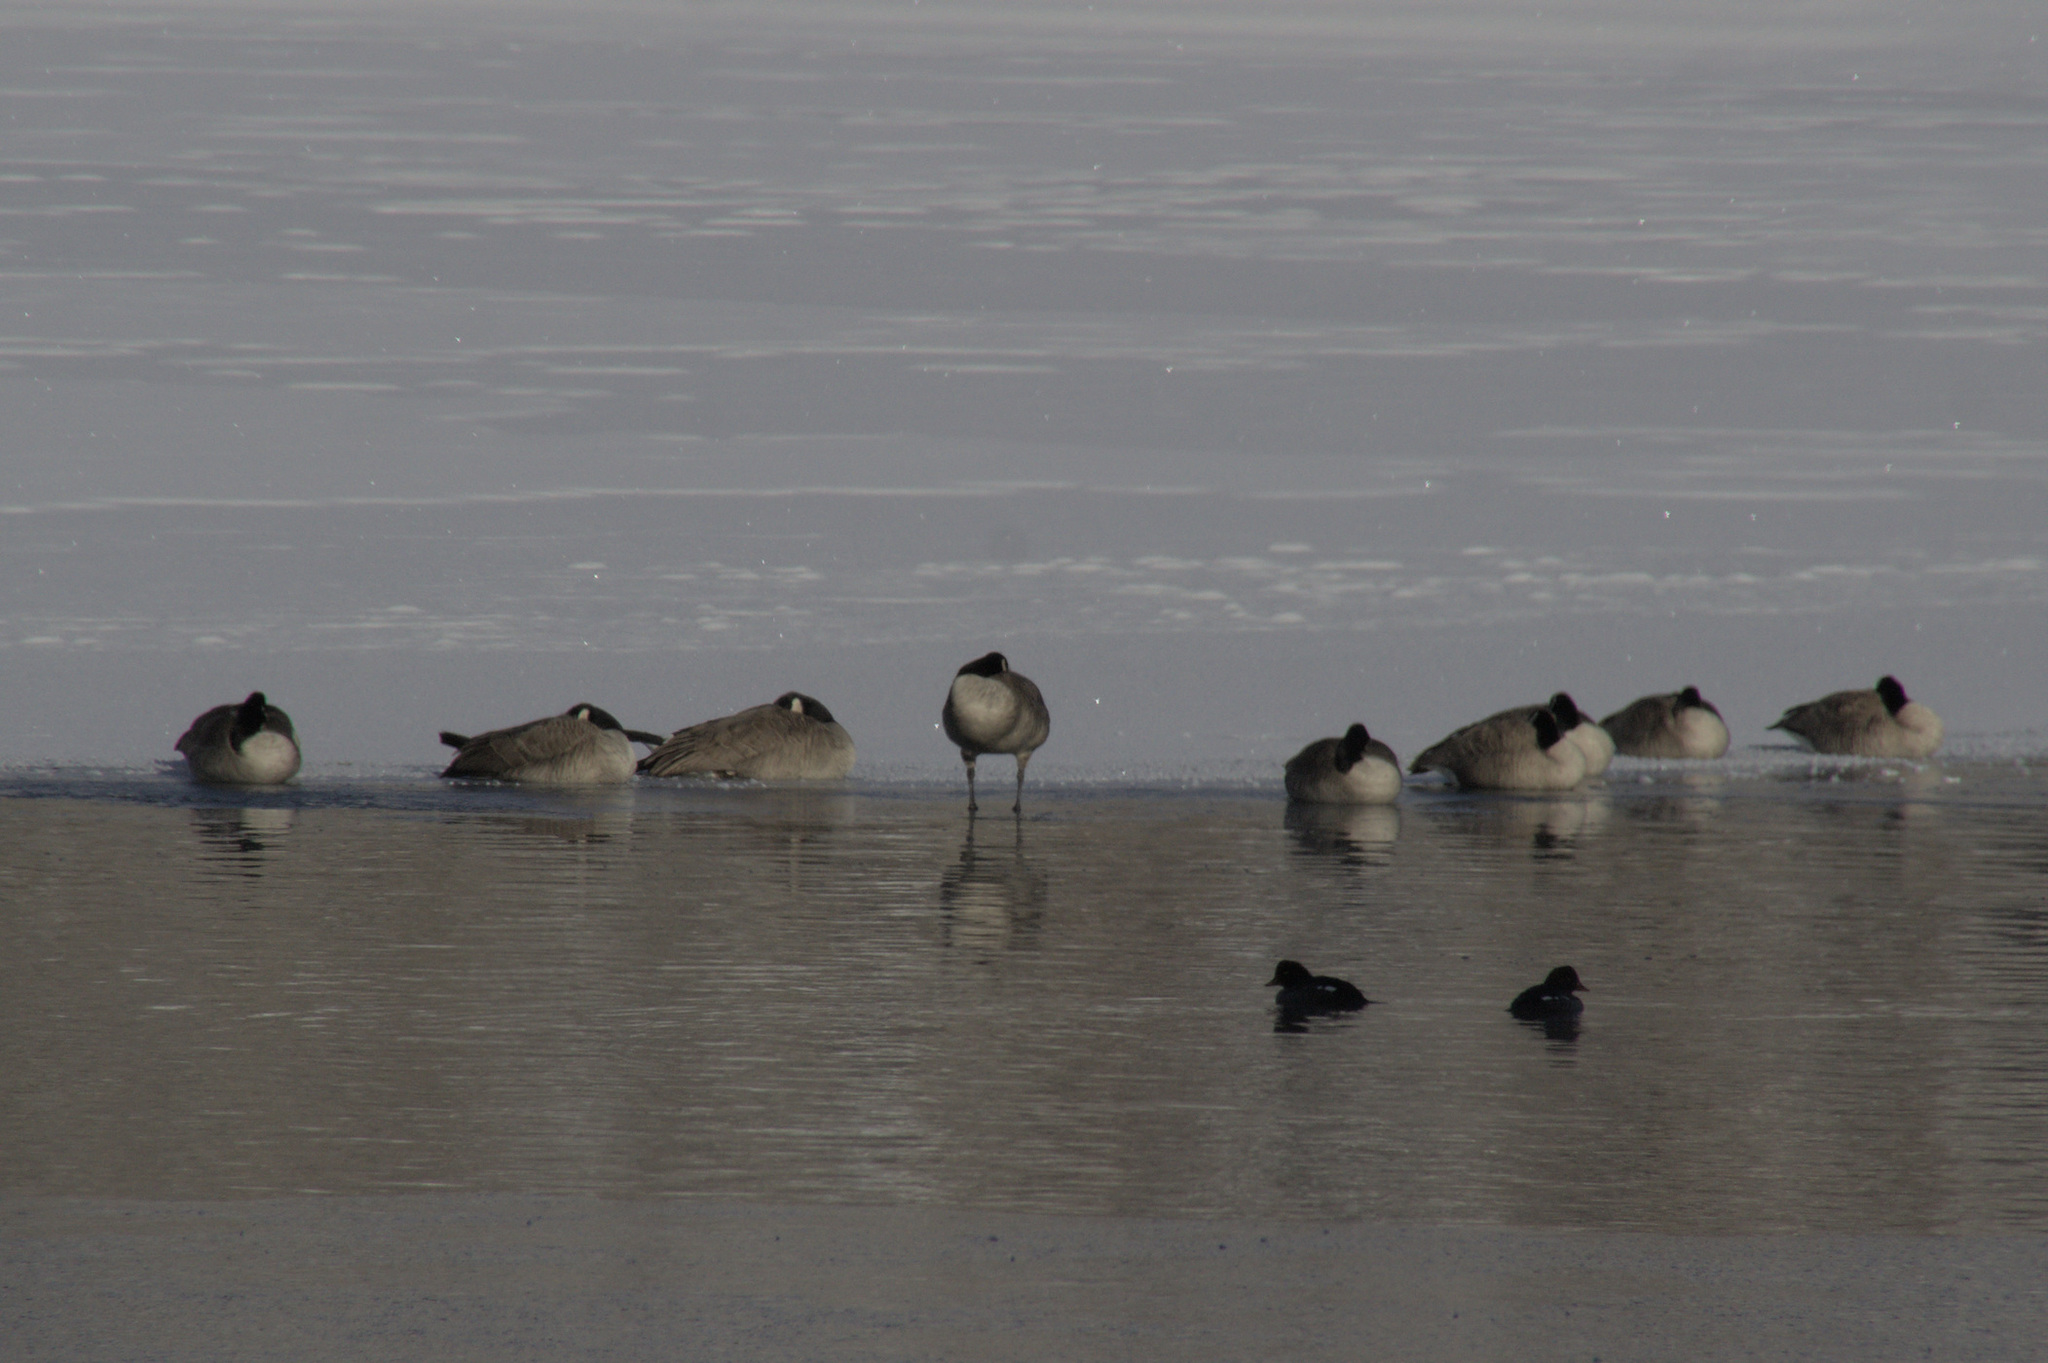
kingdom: Animalia
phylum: Chordata
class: Aves
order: Anseriformes
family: Anatidae
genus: Branta
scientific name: Branta canadensis
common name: Canada goose
